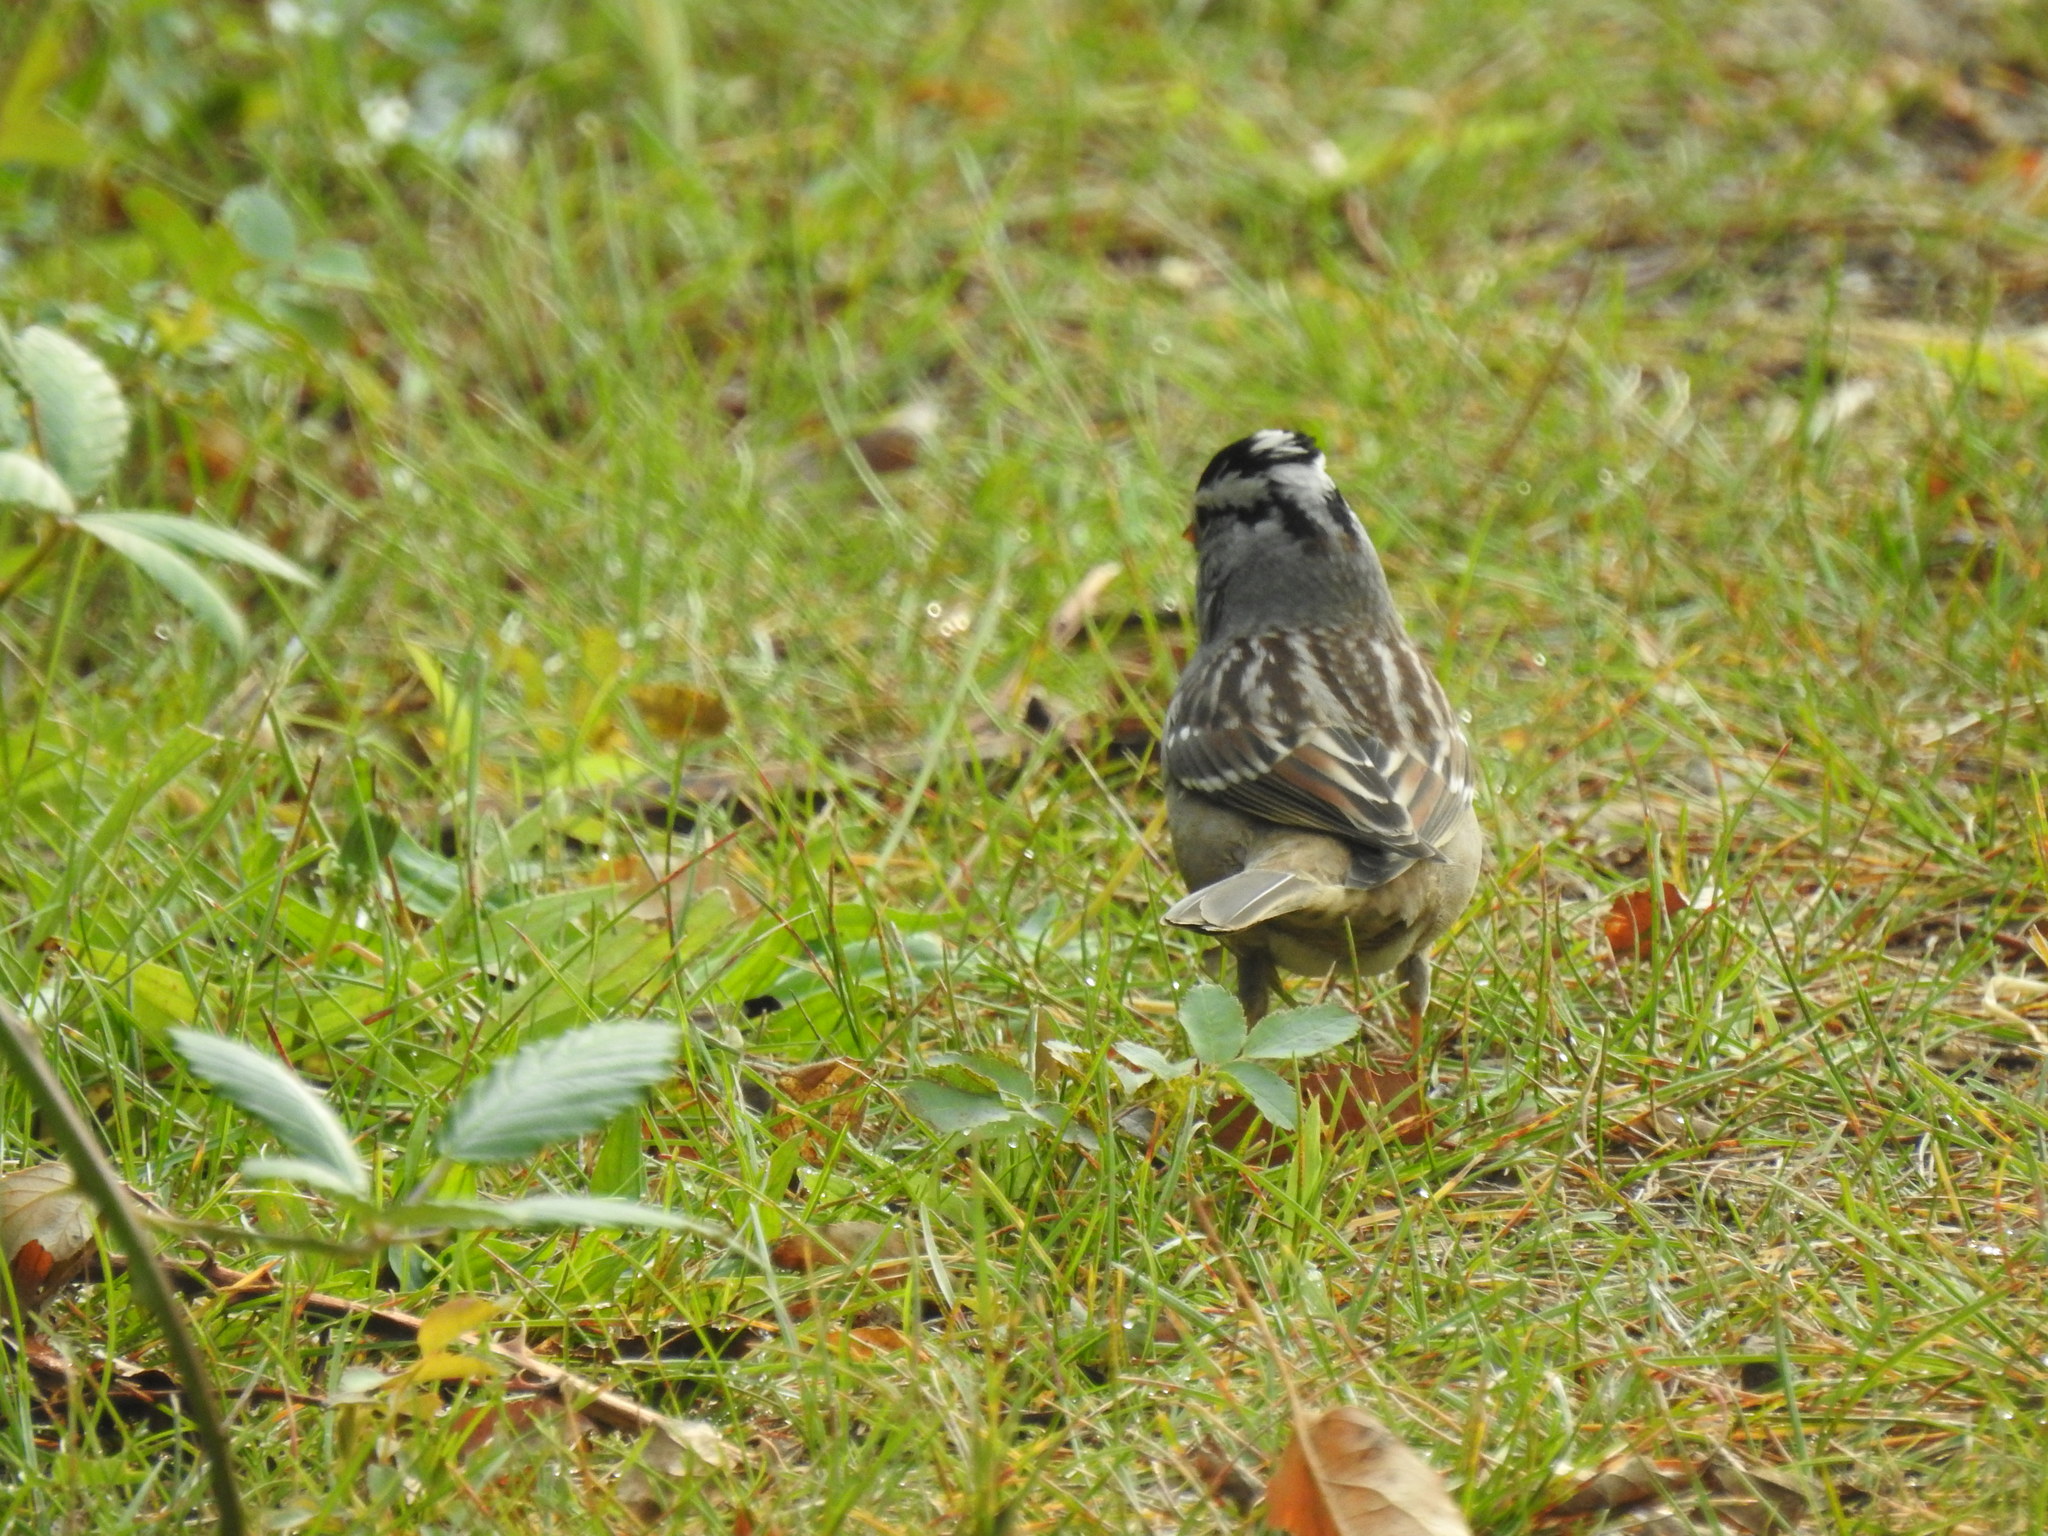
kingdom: Animalia
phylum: Chordata
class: Aves
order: Passeriformes
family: Passerellidae
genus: Zonotrichia
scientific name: Zonotrichia leucophrys
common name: White-crowned sparrow
